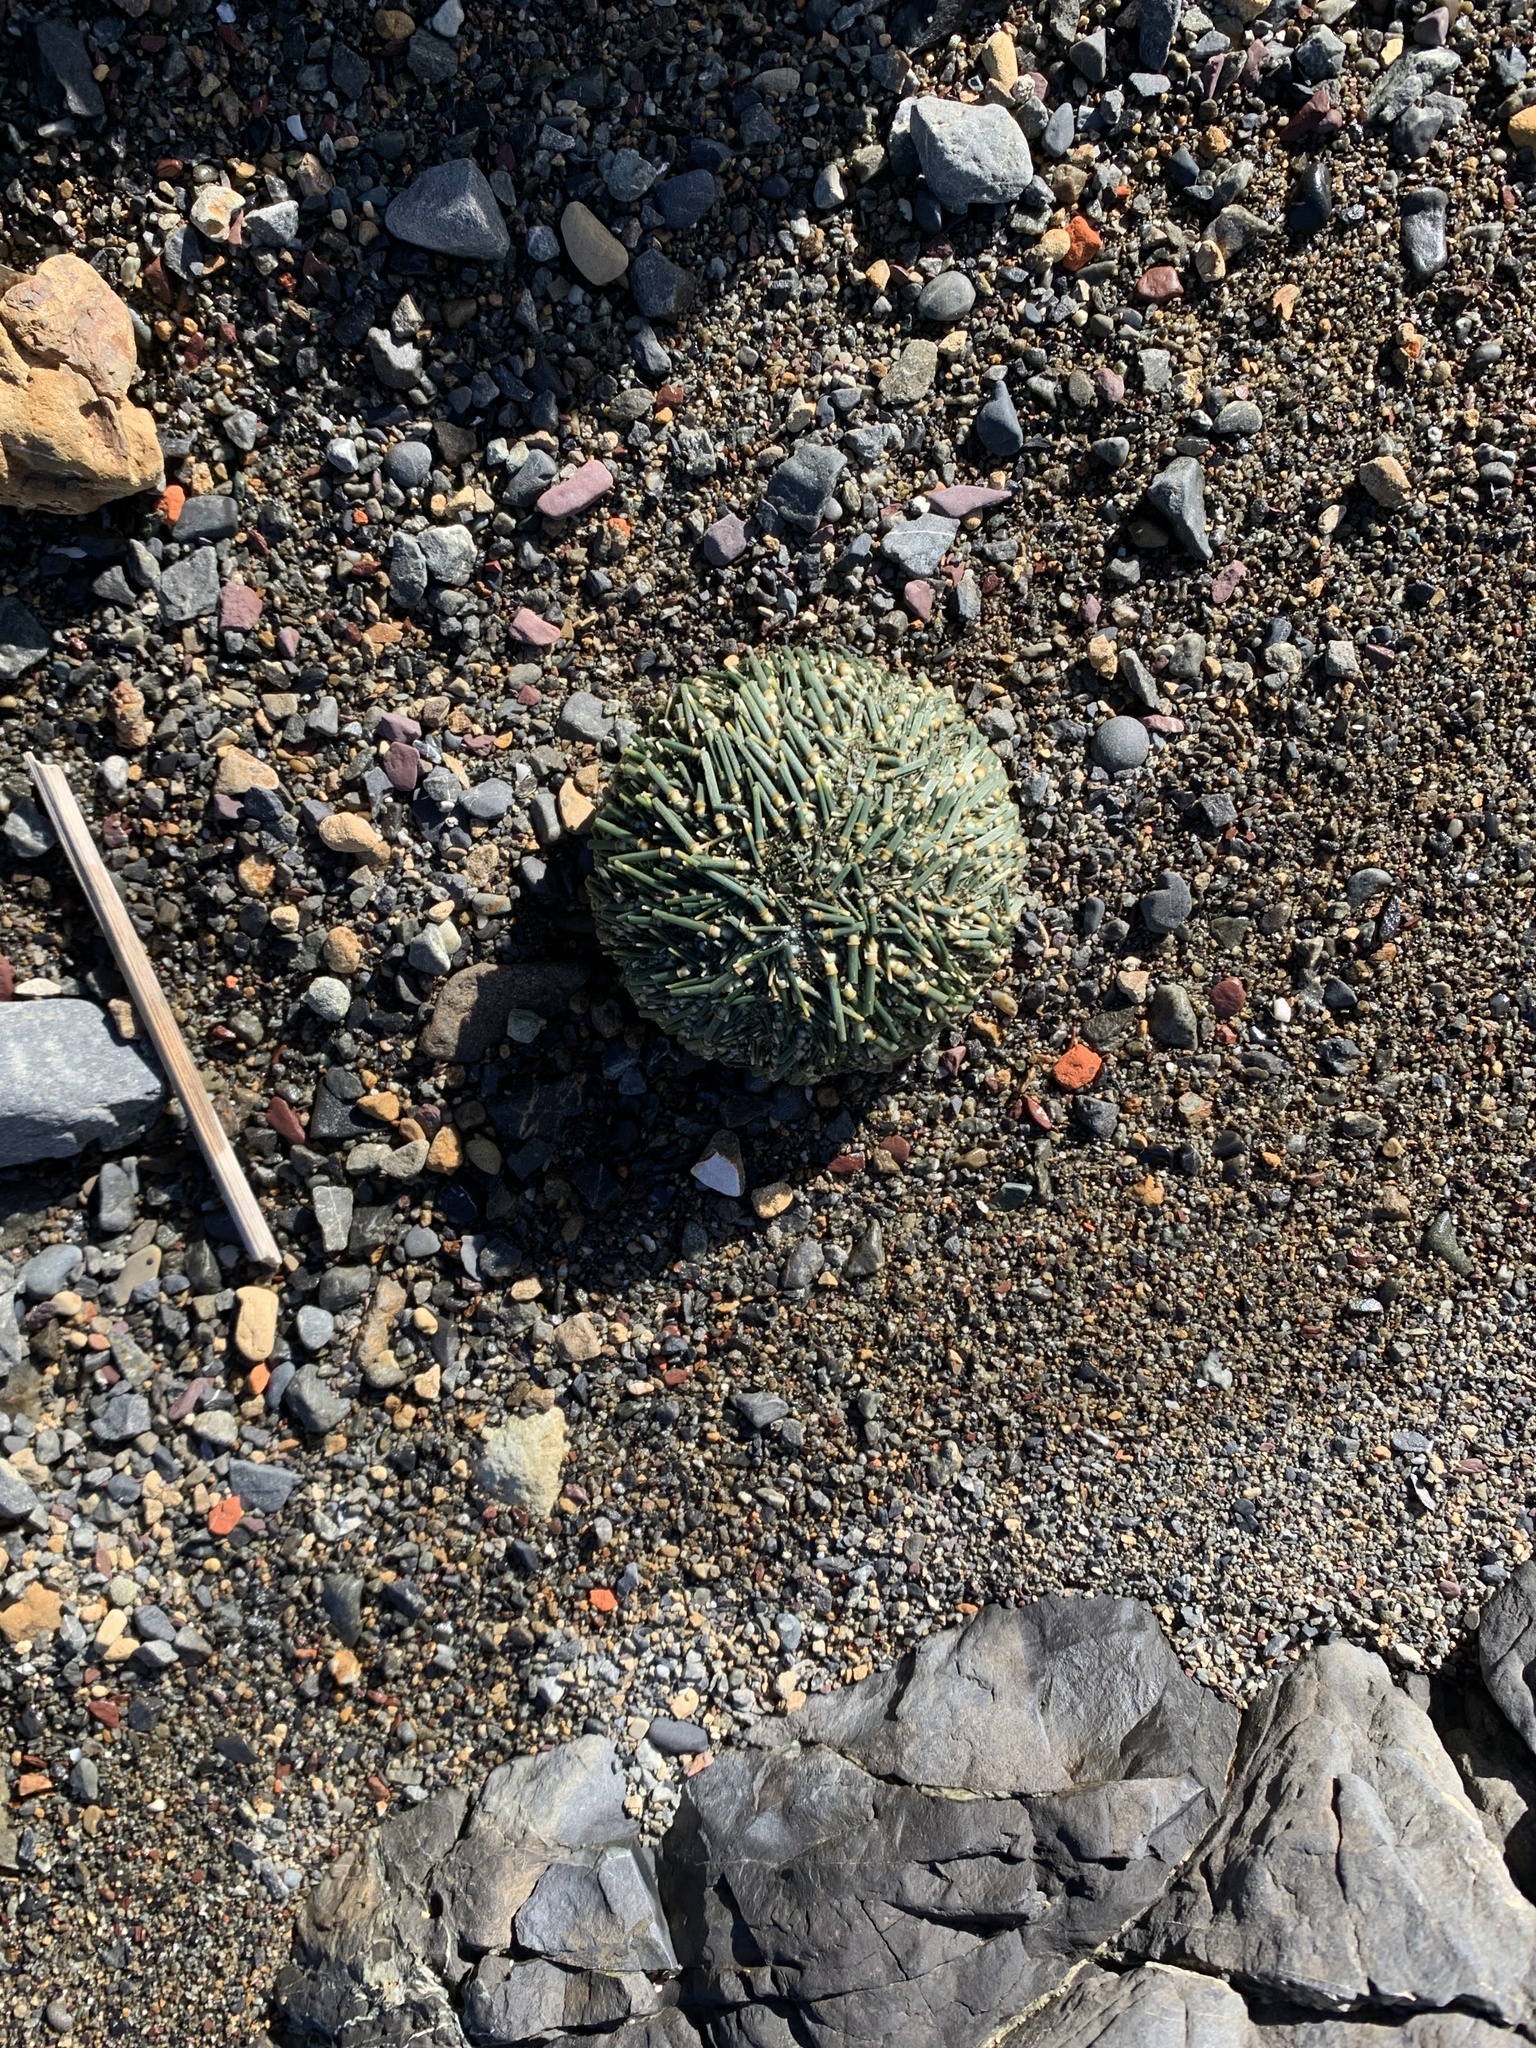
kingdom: Animalia
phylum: Echinodermata
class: Echinoidea
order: Camarodonta
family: Echinometridae
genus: Evechinus
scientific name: Evechinus chloroticus
